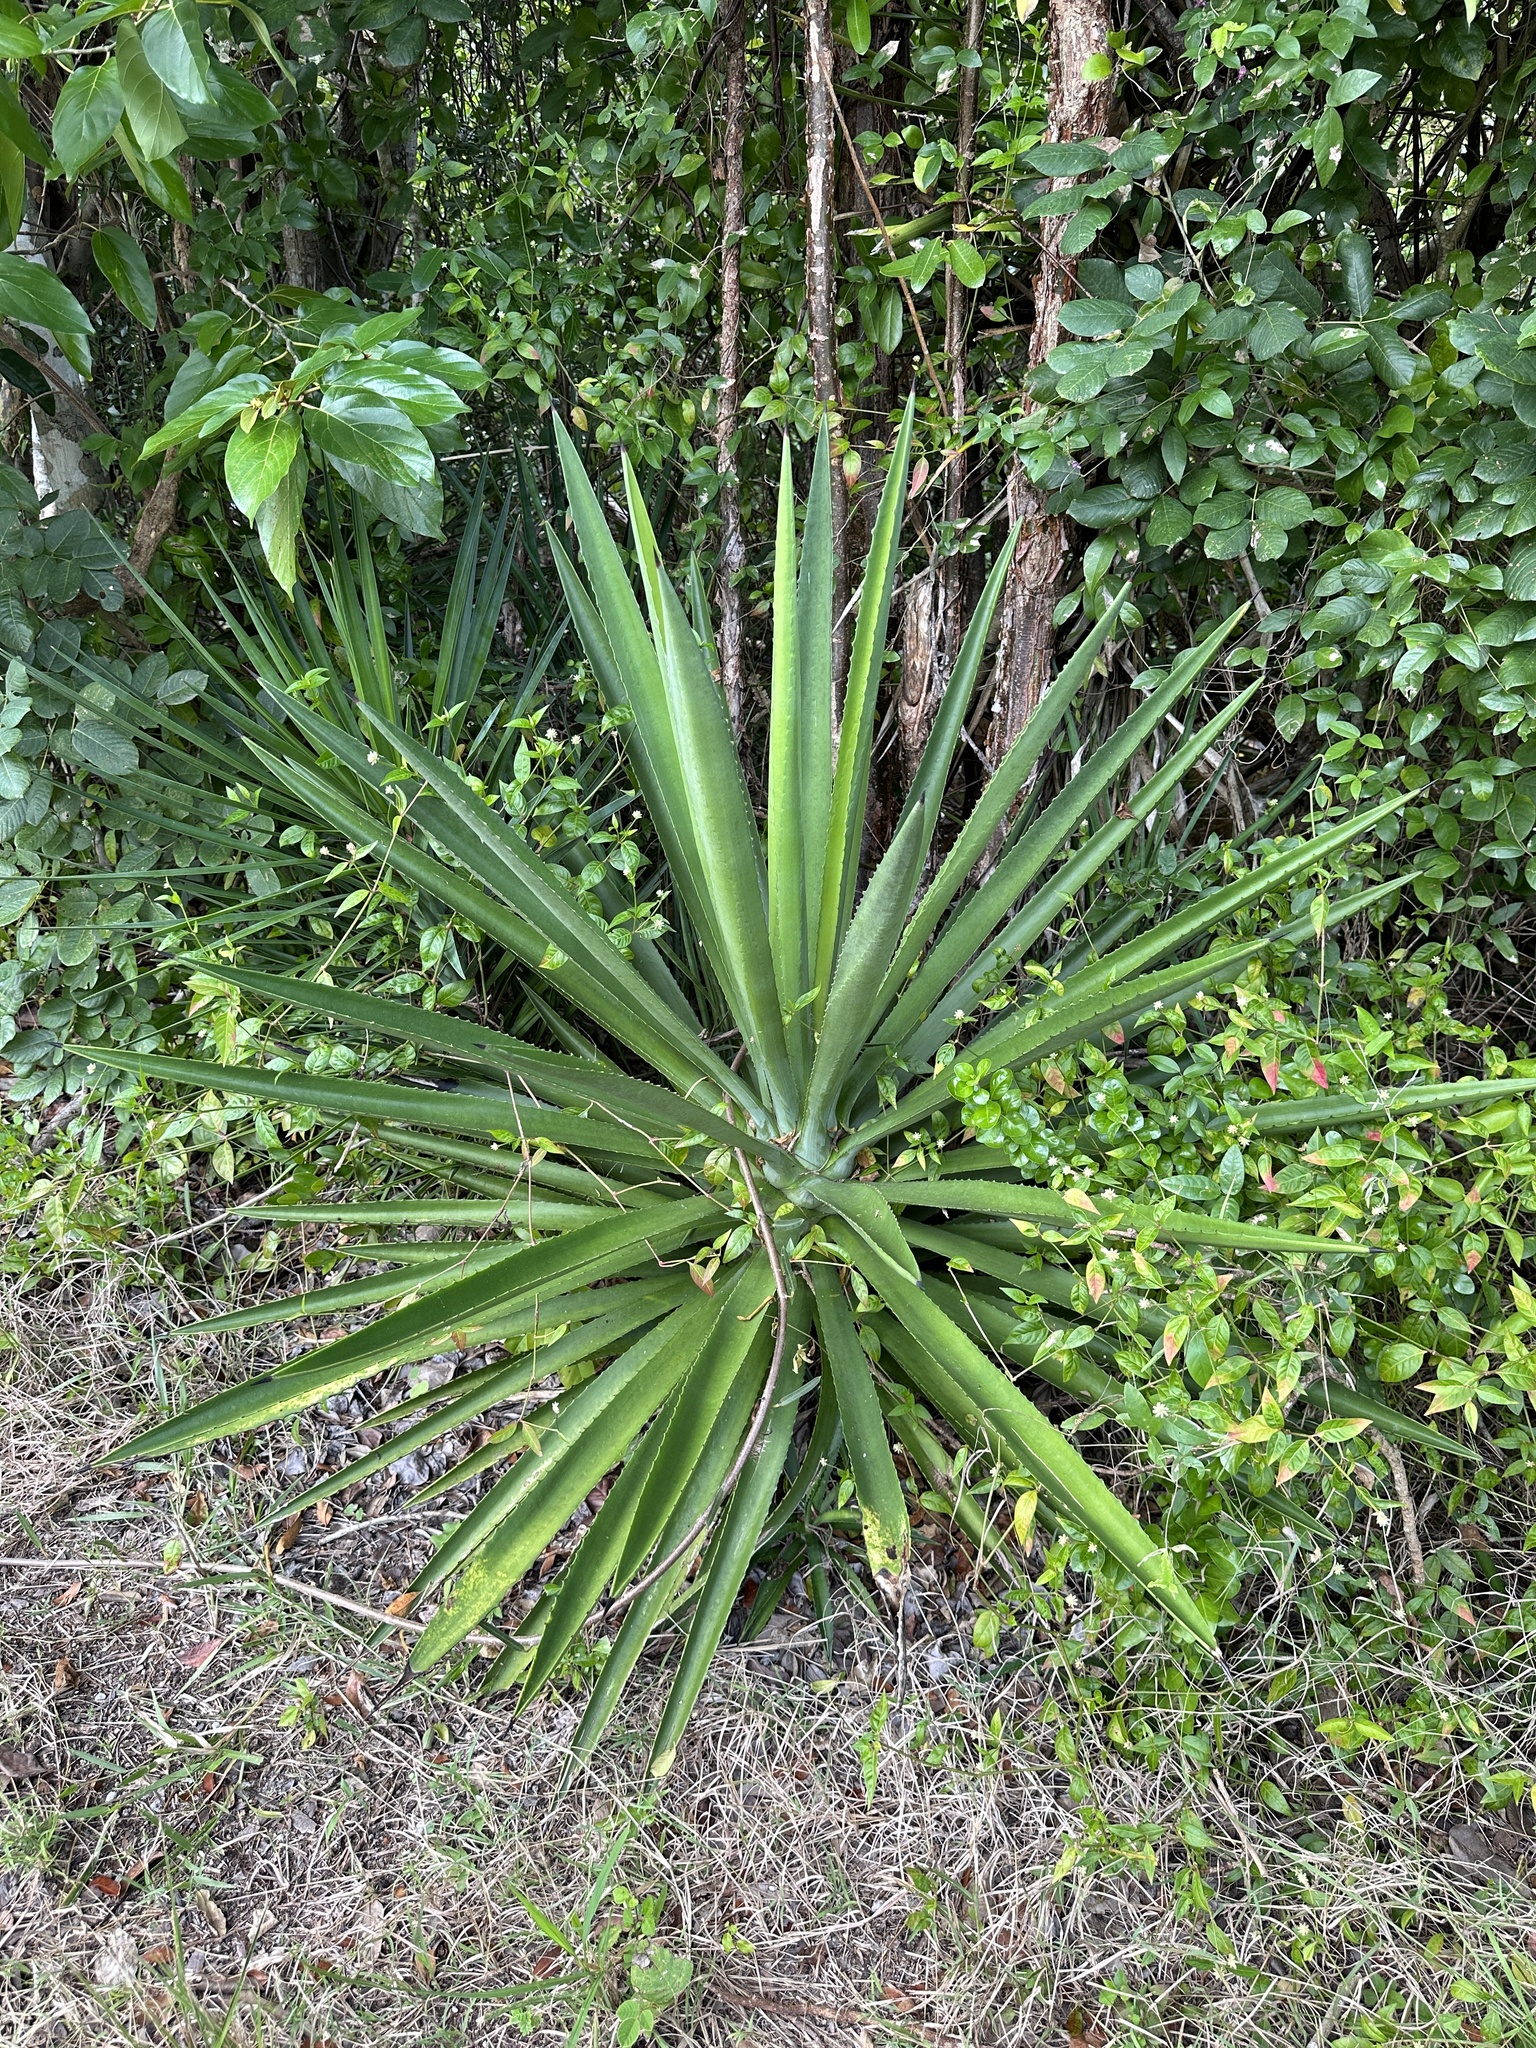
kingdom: Plantae
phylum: Tracheophyta
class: Liliopsida
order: Asparagales
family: Asparagaceae
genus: Agave
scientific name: Agave decipiens
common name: False sisal
